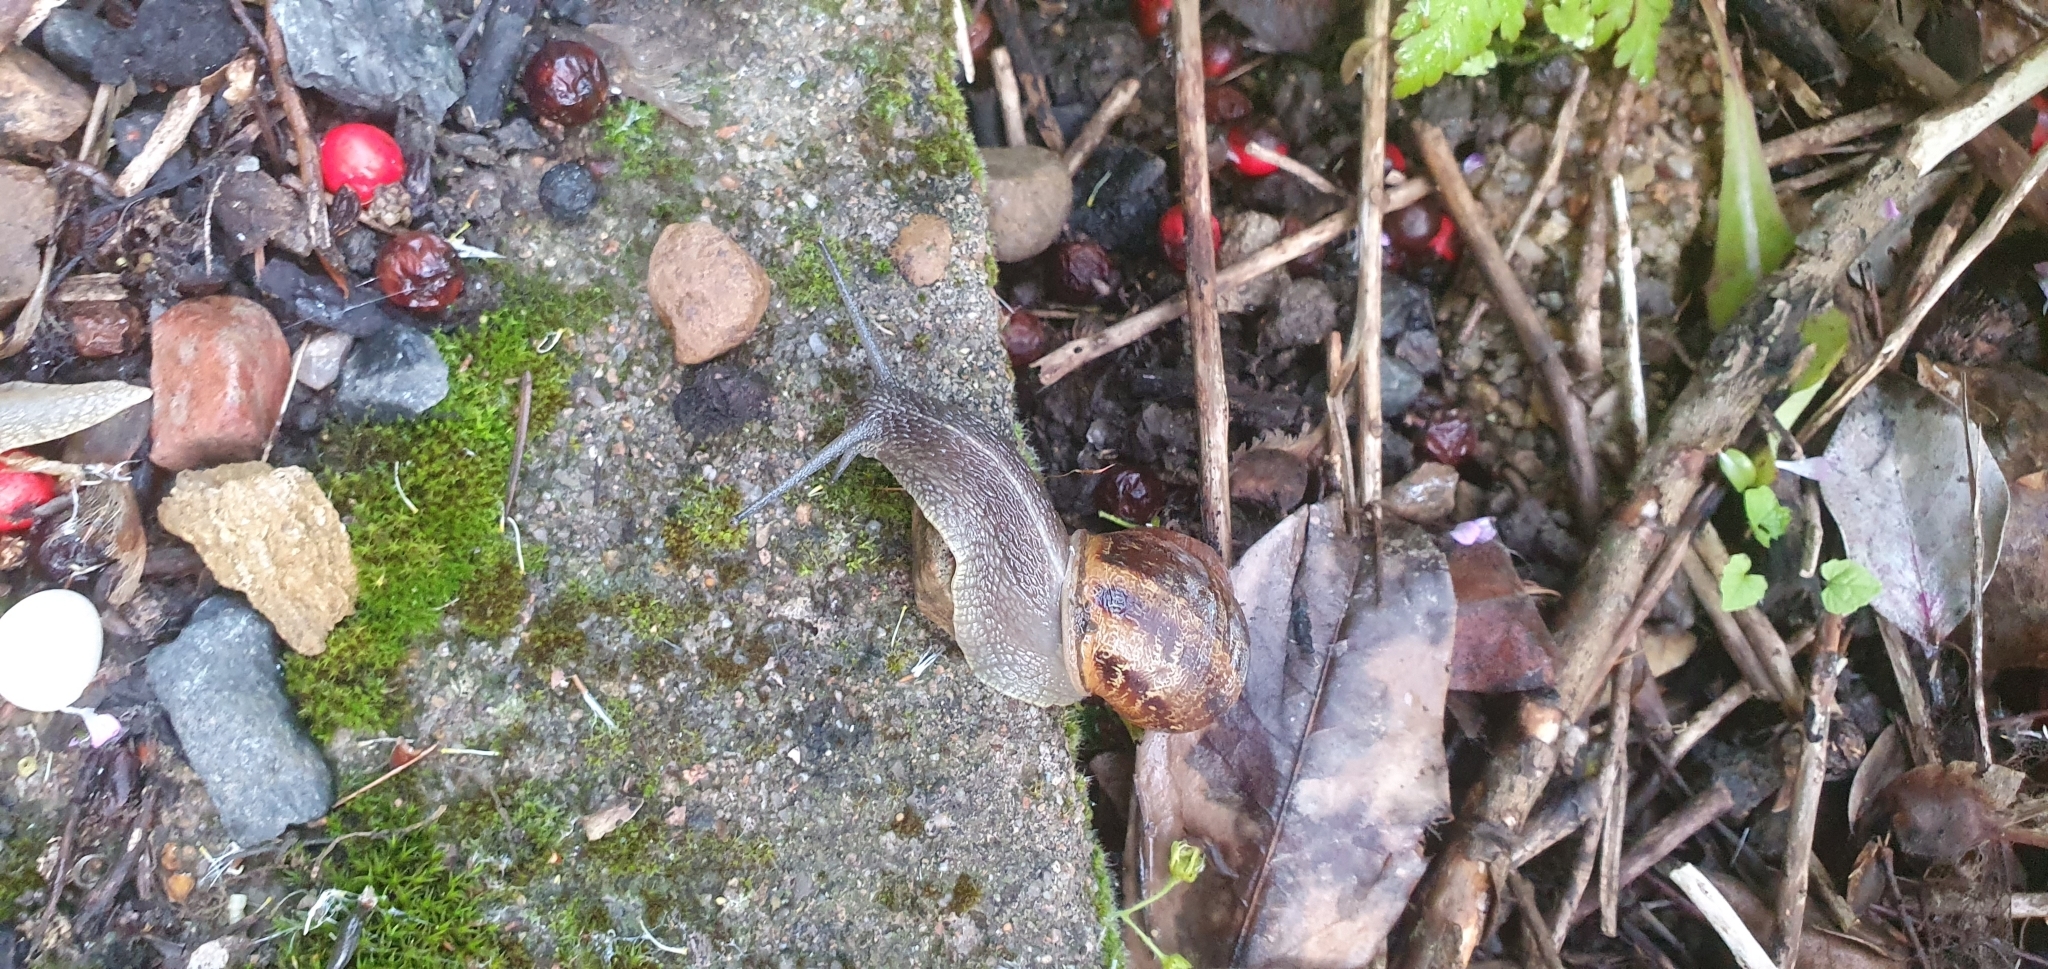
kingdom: Animalia
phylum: Mollusca
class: Gastropoda
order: Stylommatophora
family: Helicidae
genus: Cornu
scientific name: Cornu aspersum
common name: Brown garden snail
